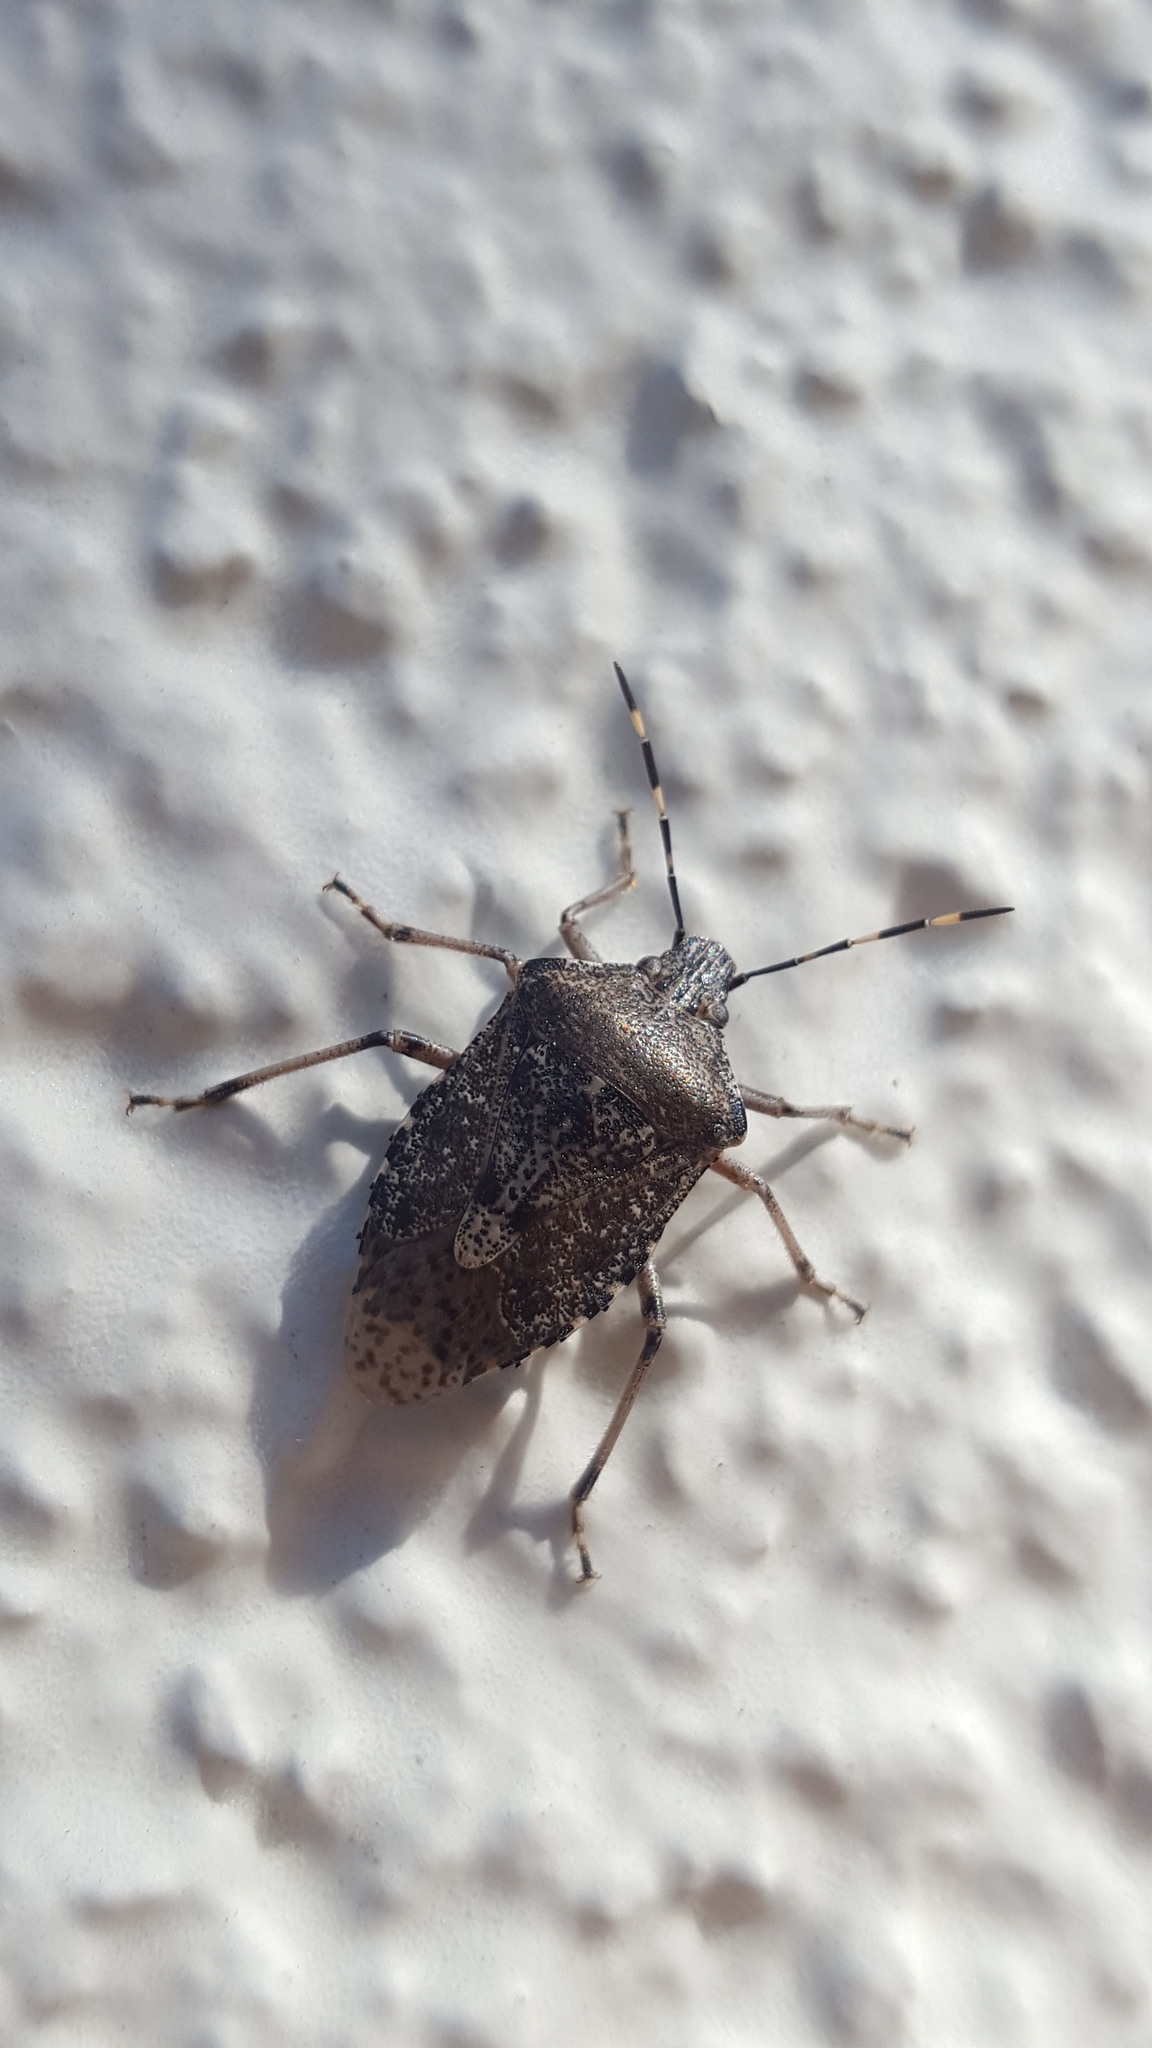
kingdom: Animalia
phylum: Arthropoda
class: Insecta
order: Hemiptera
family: Pentatomidae
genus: Rhaphigaster
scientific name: Rhaphigaster nebulosa
